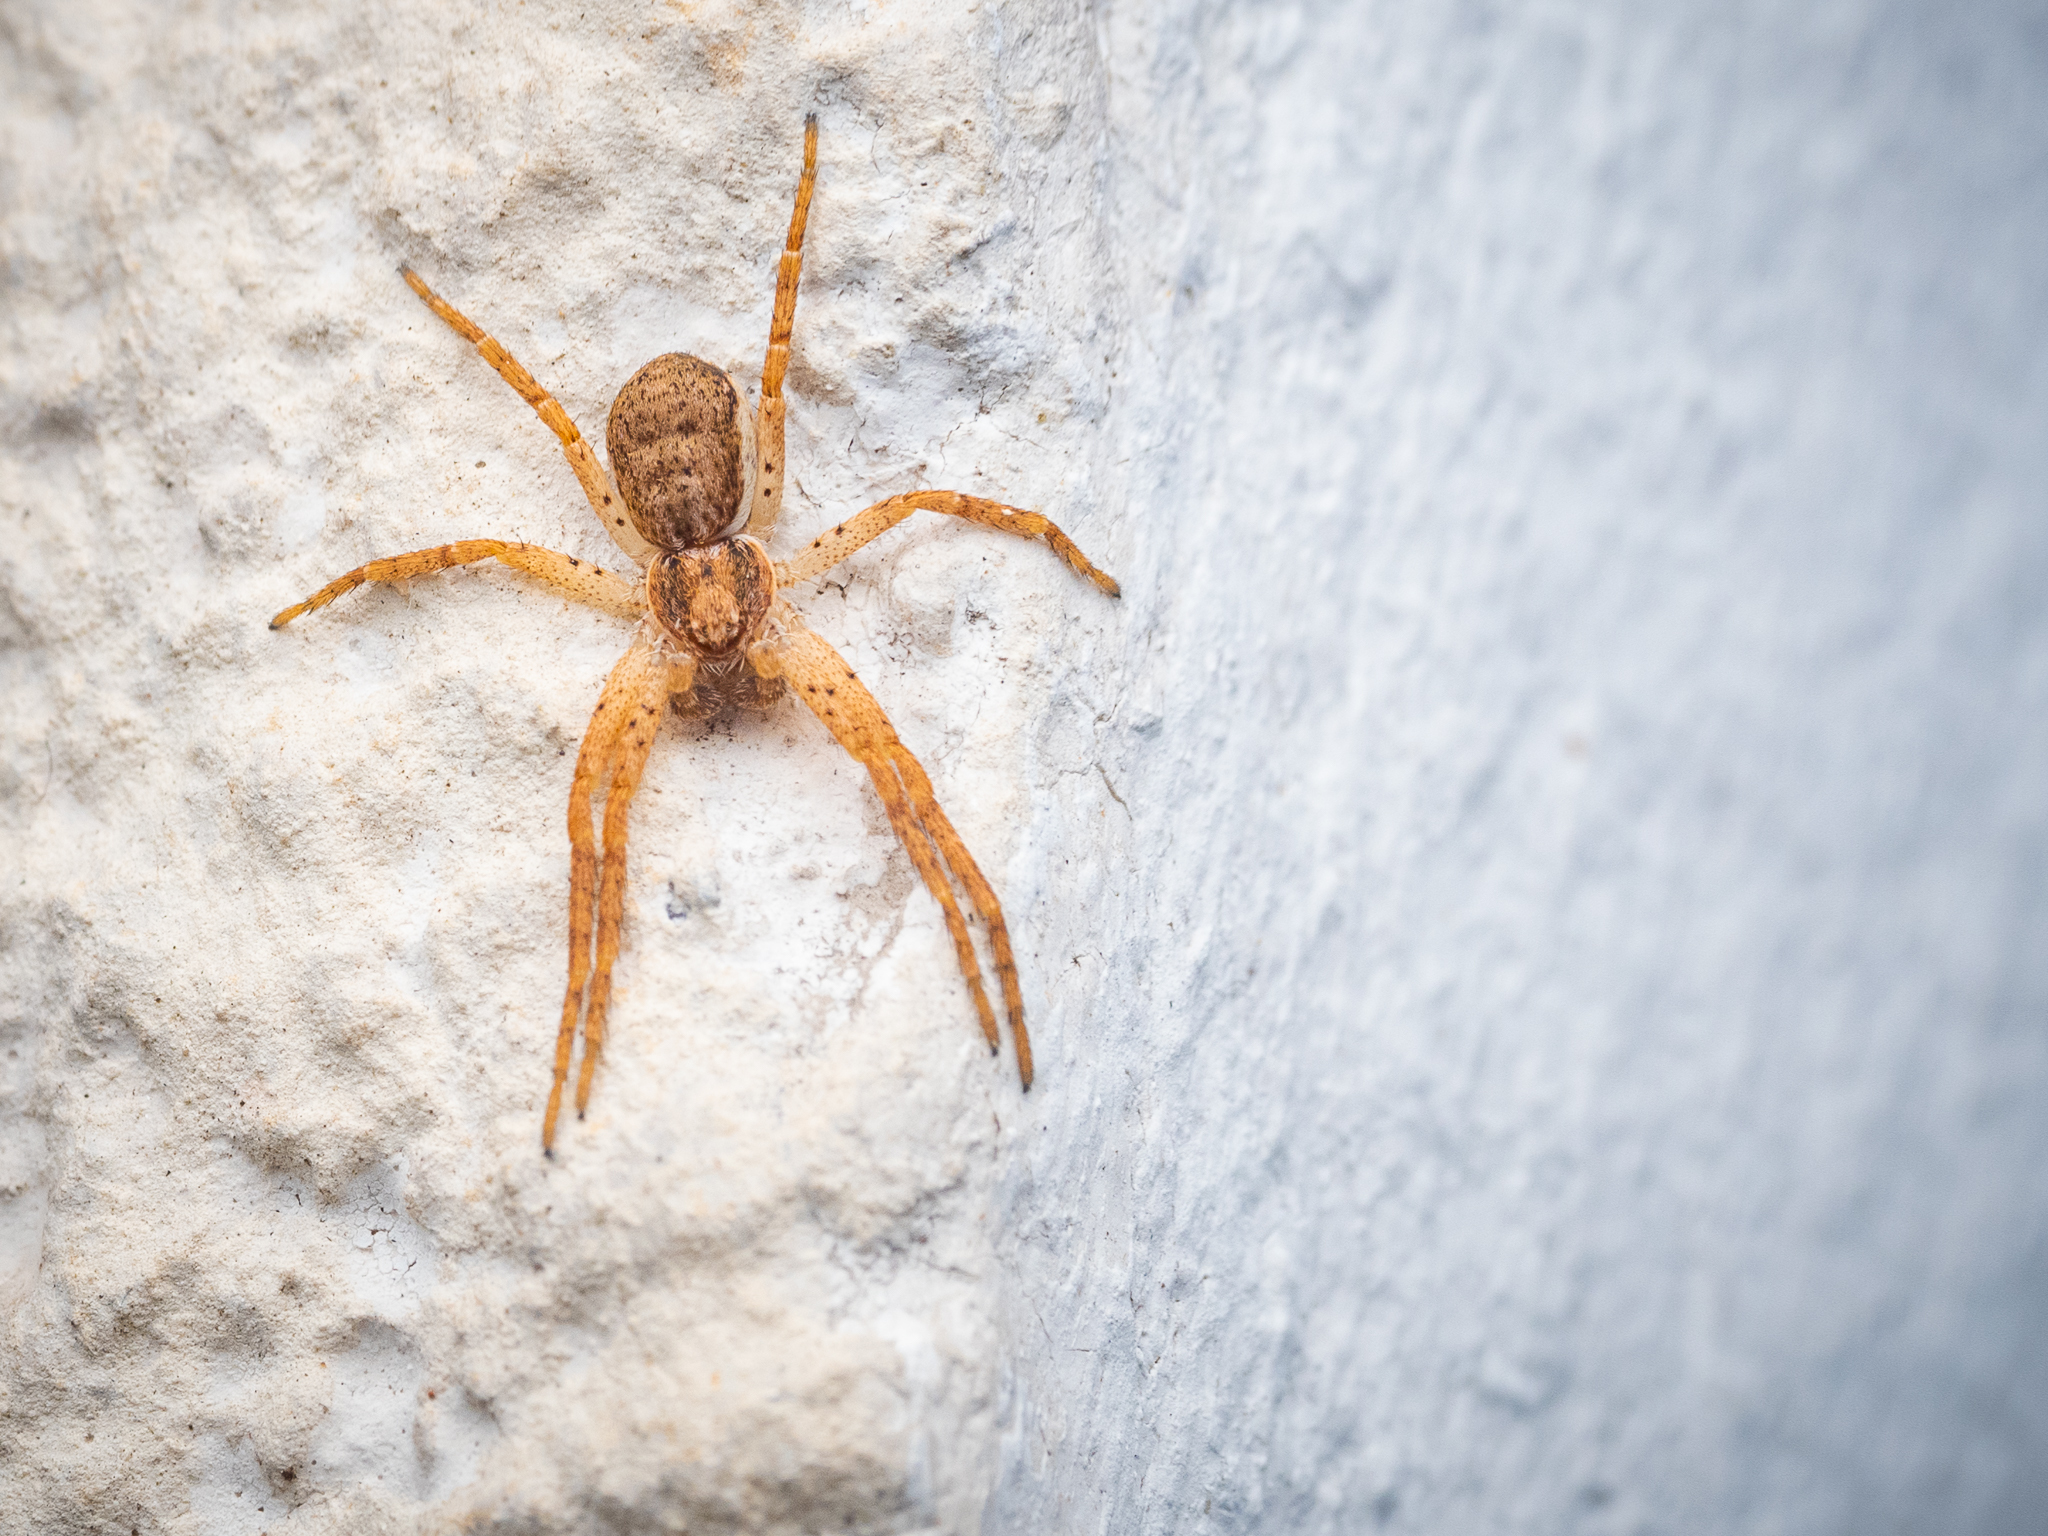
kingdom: Animalia
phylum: Arthropoda
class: Arachnida
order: Araneae
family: Philodromidae
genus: Philodromus
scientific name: Philodromus dispar
